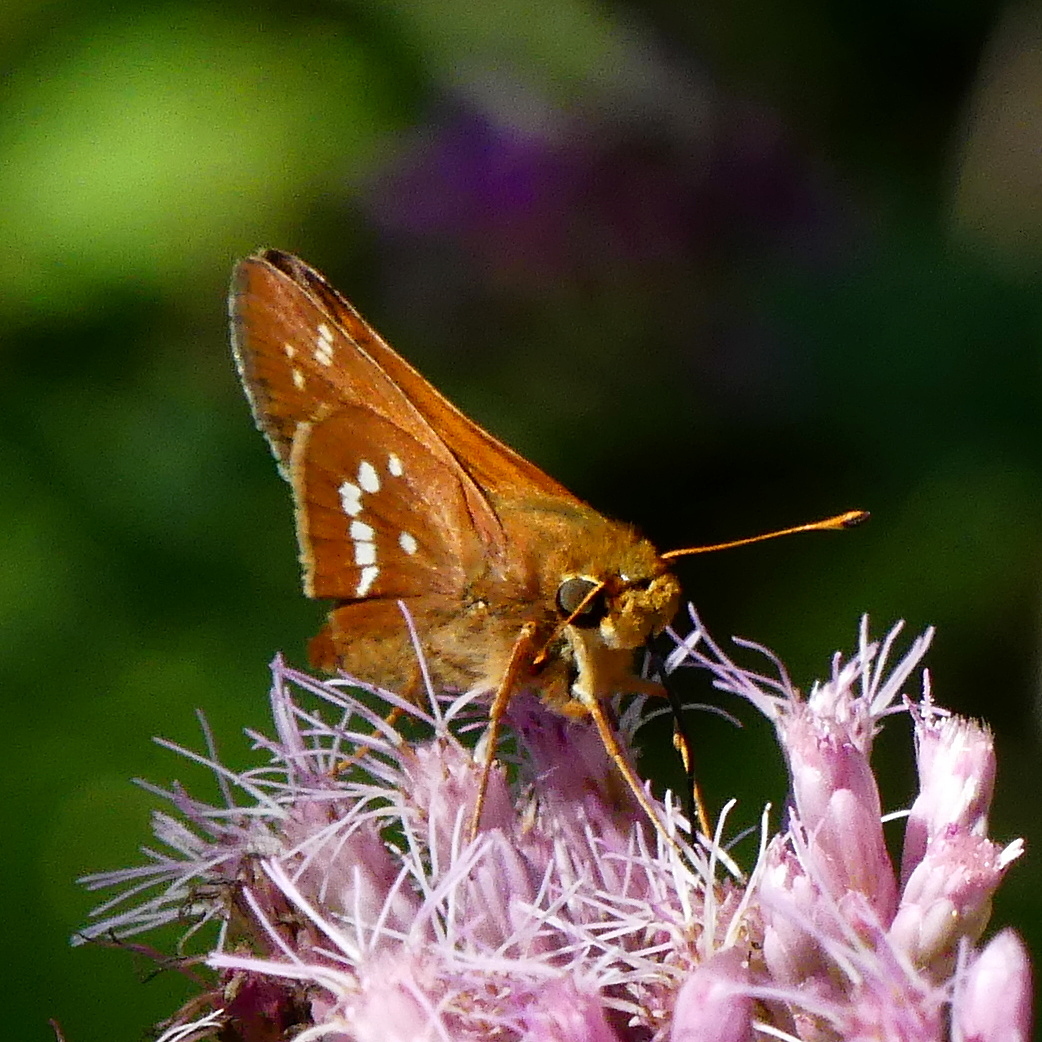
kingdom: Animalia
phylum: Arthropoda
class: Insecta
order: Lepidoptera
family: Hesperiidae
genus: Hesperia
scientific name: Hesperia leonardus
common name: Leonard's skipper
